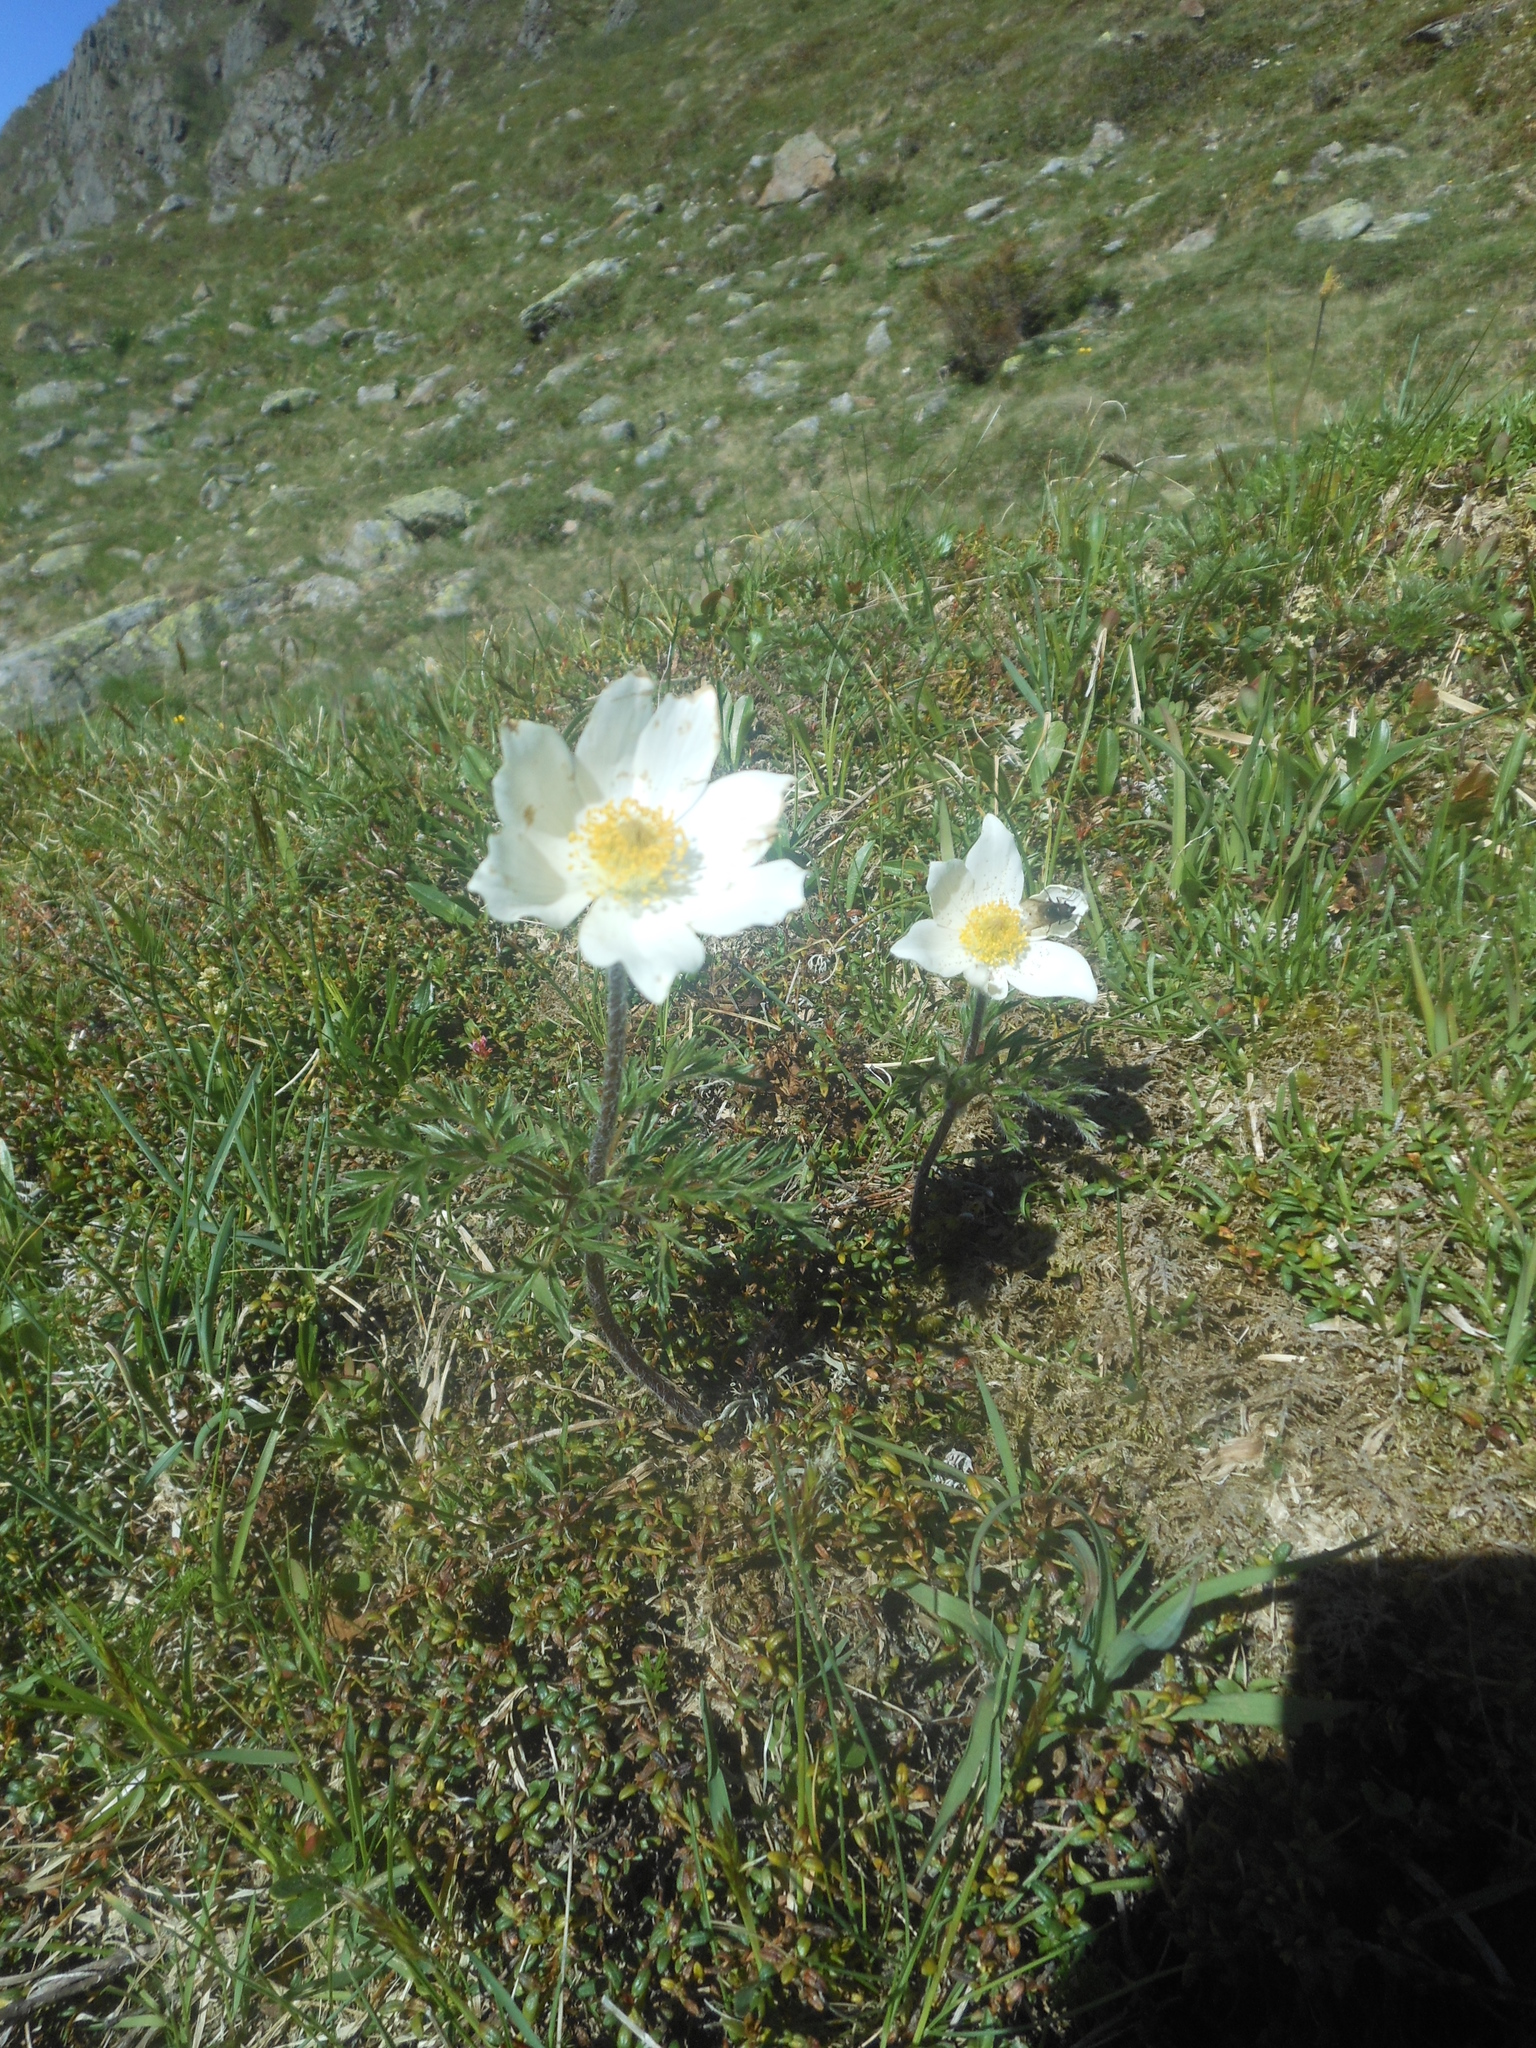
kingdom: Plantae
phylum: Tracheophyta
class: Magnoliopsida
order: Ranunculales
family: Ranunculaceae
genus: Pulsatilla
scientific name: Pulsatilla alpina
